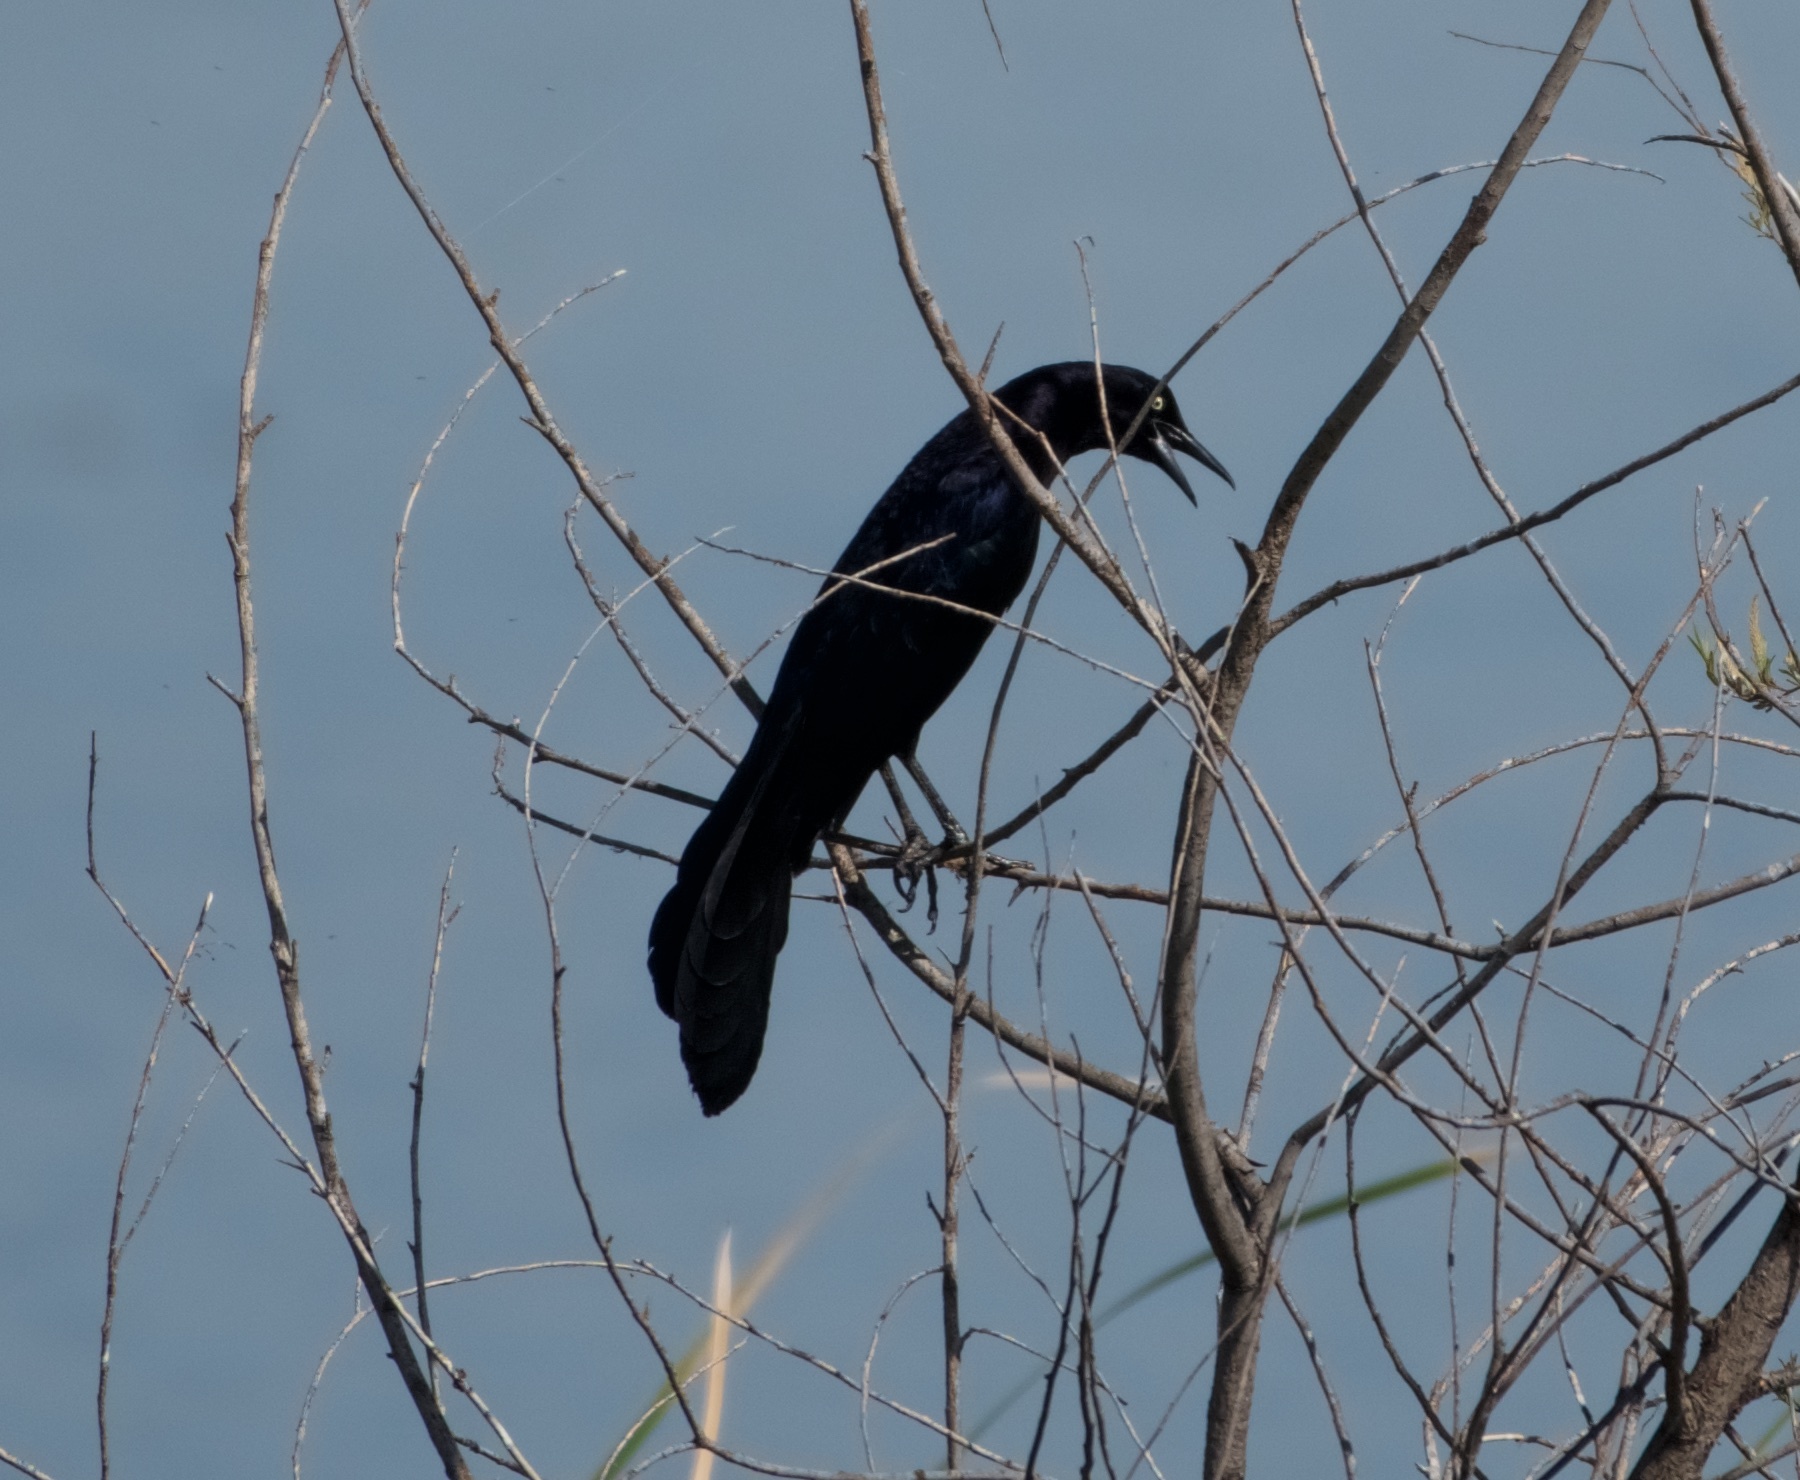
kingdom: Animalia
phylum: Chordata
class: Aves
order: Passeriformes
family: Icteridae
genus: Quiscalus
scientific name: Quiscalus mexicanus
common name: Great-tailed grackle
